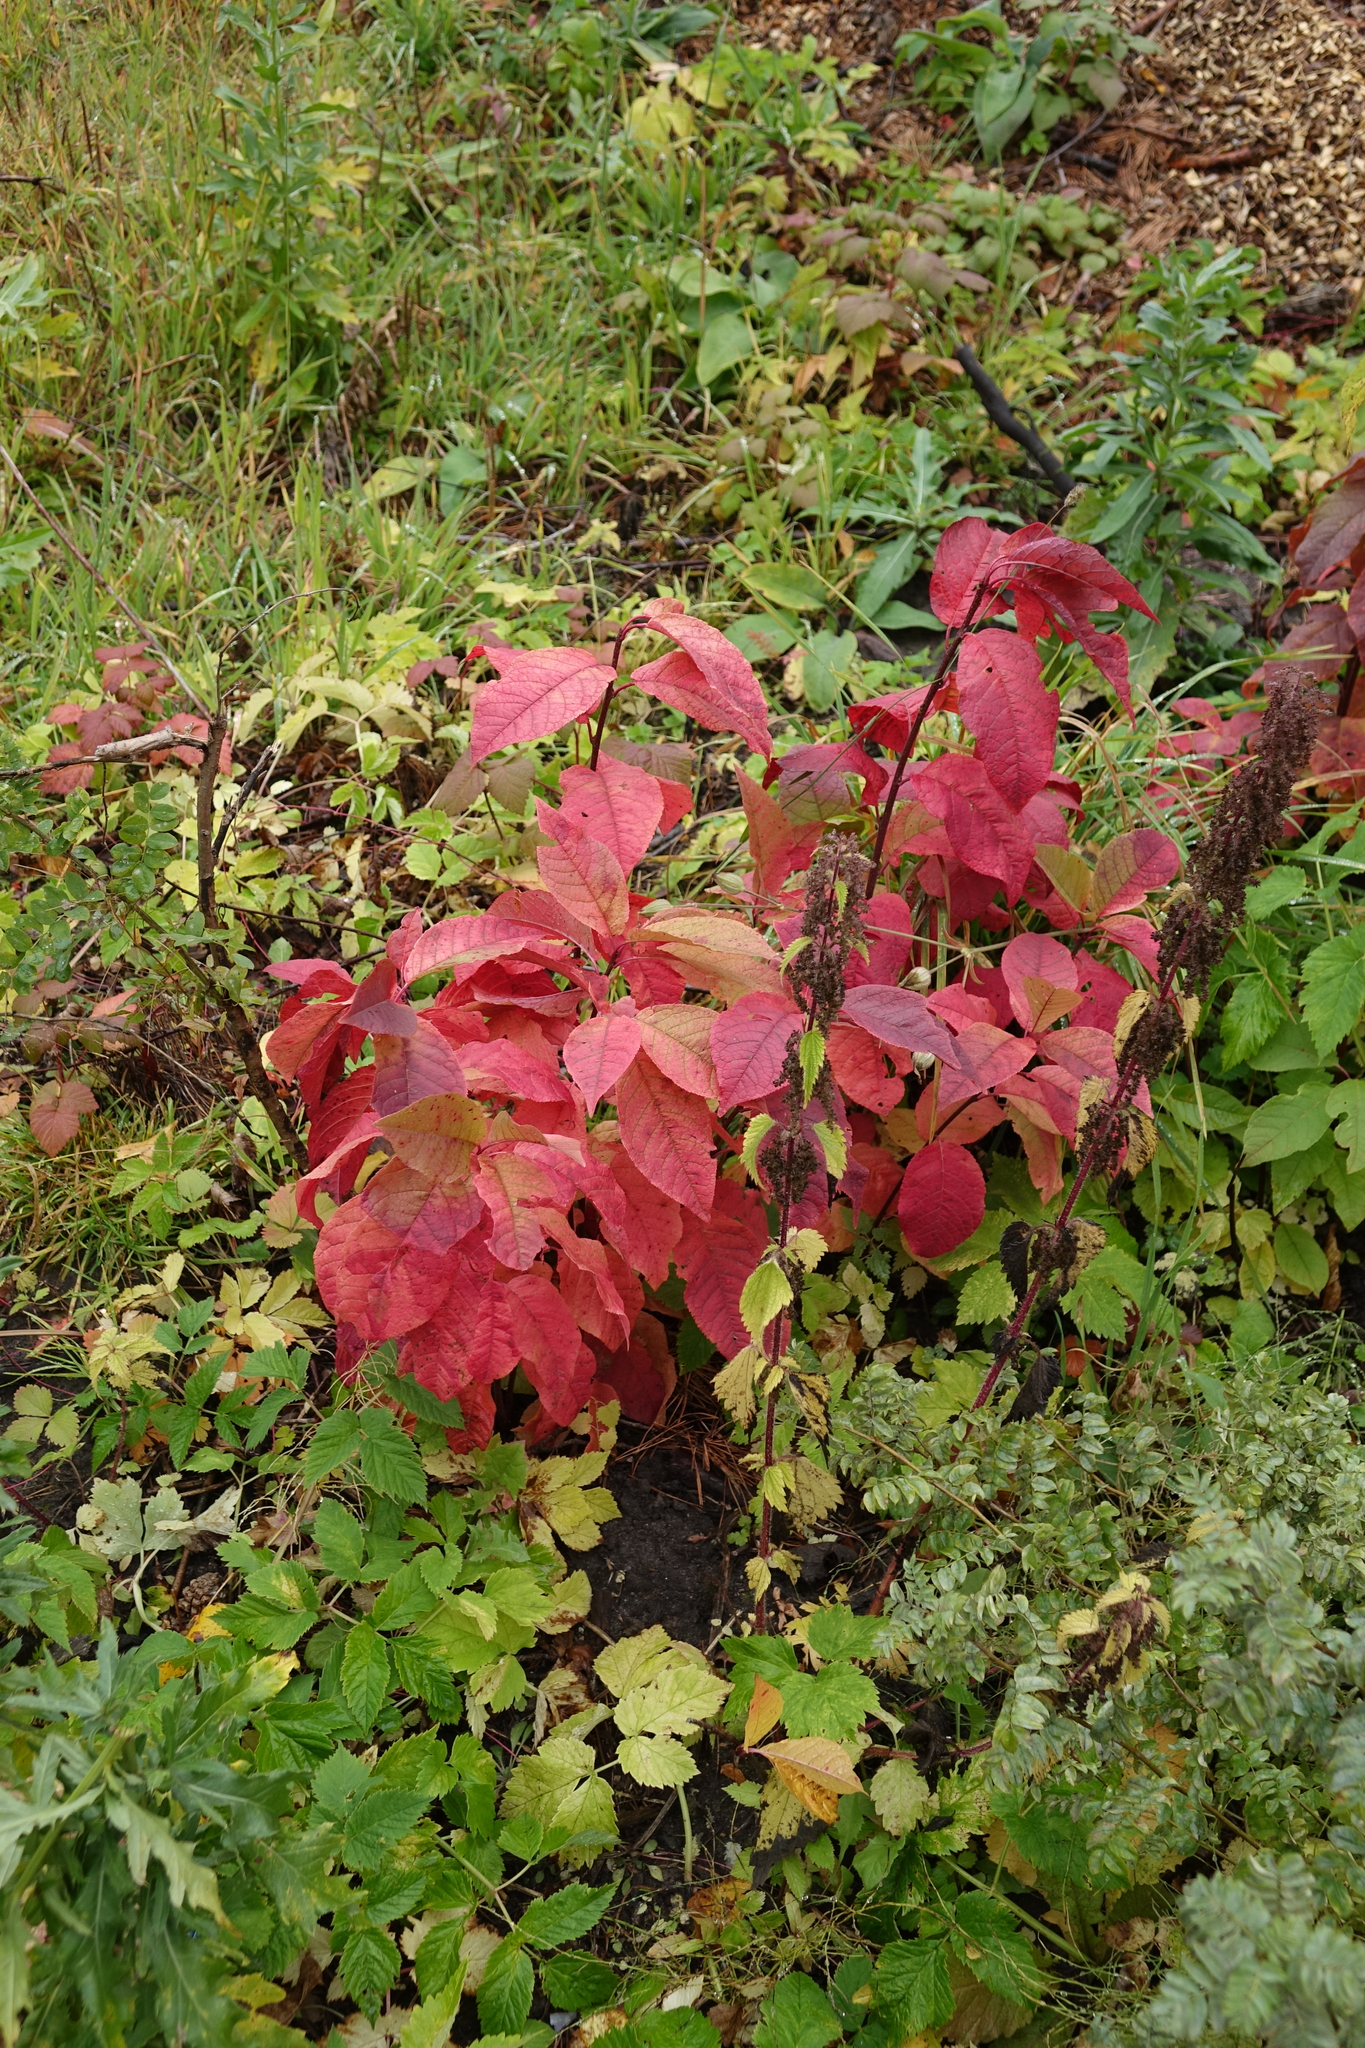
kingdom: Plantae
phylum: Tracheophyta
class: Magnoliopsida
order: Rosales
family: Rosaceae
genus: Prunus
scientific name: Prunus padus
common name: Bird cherry
